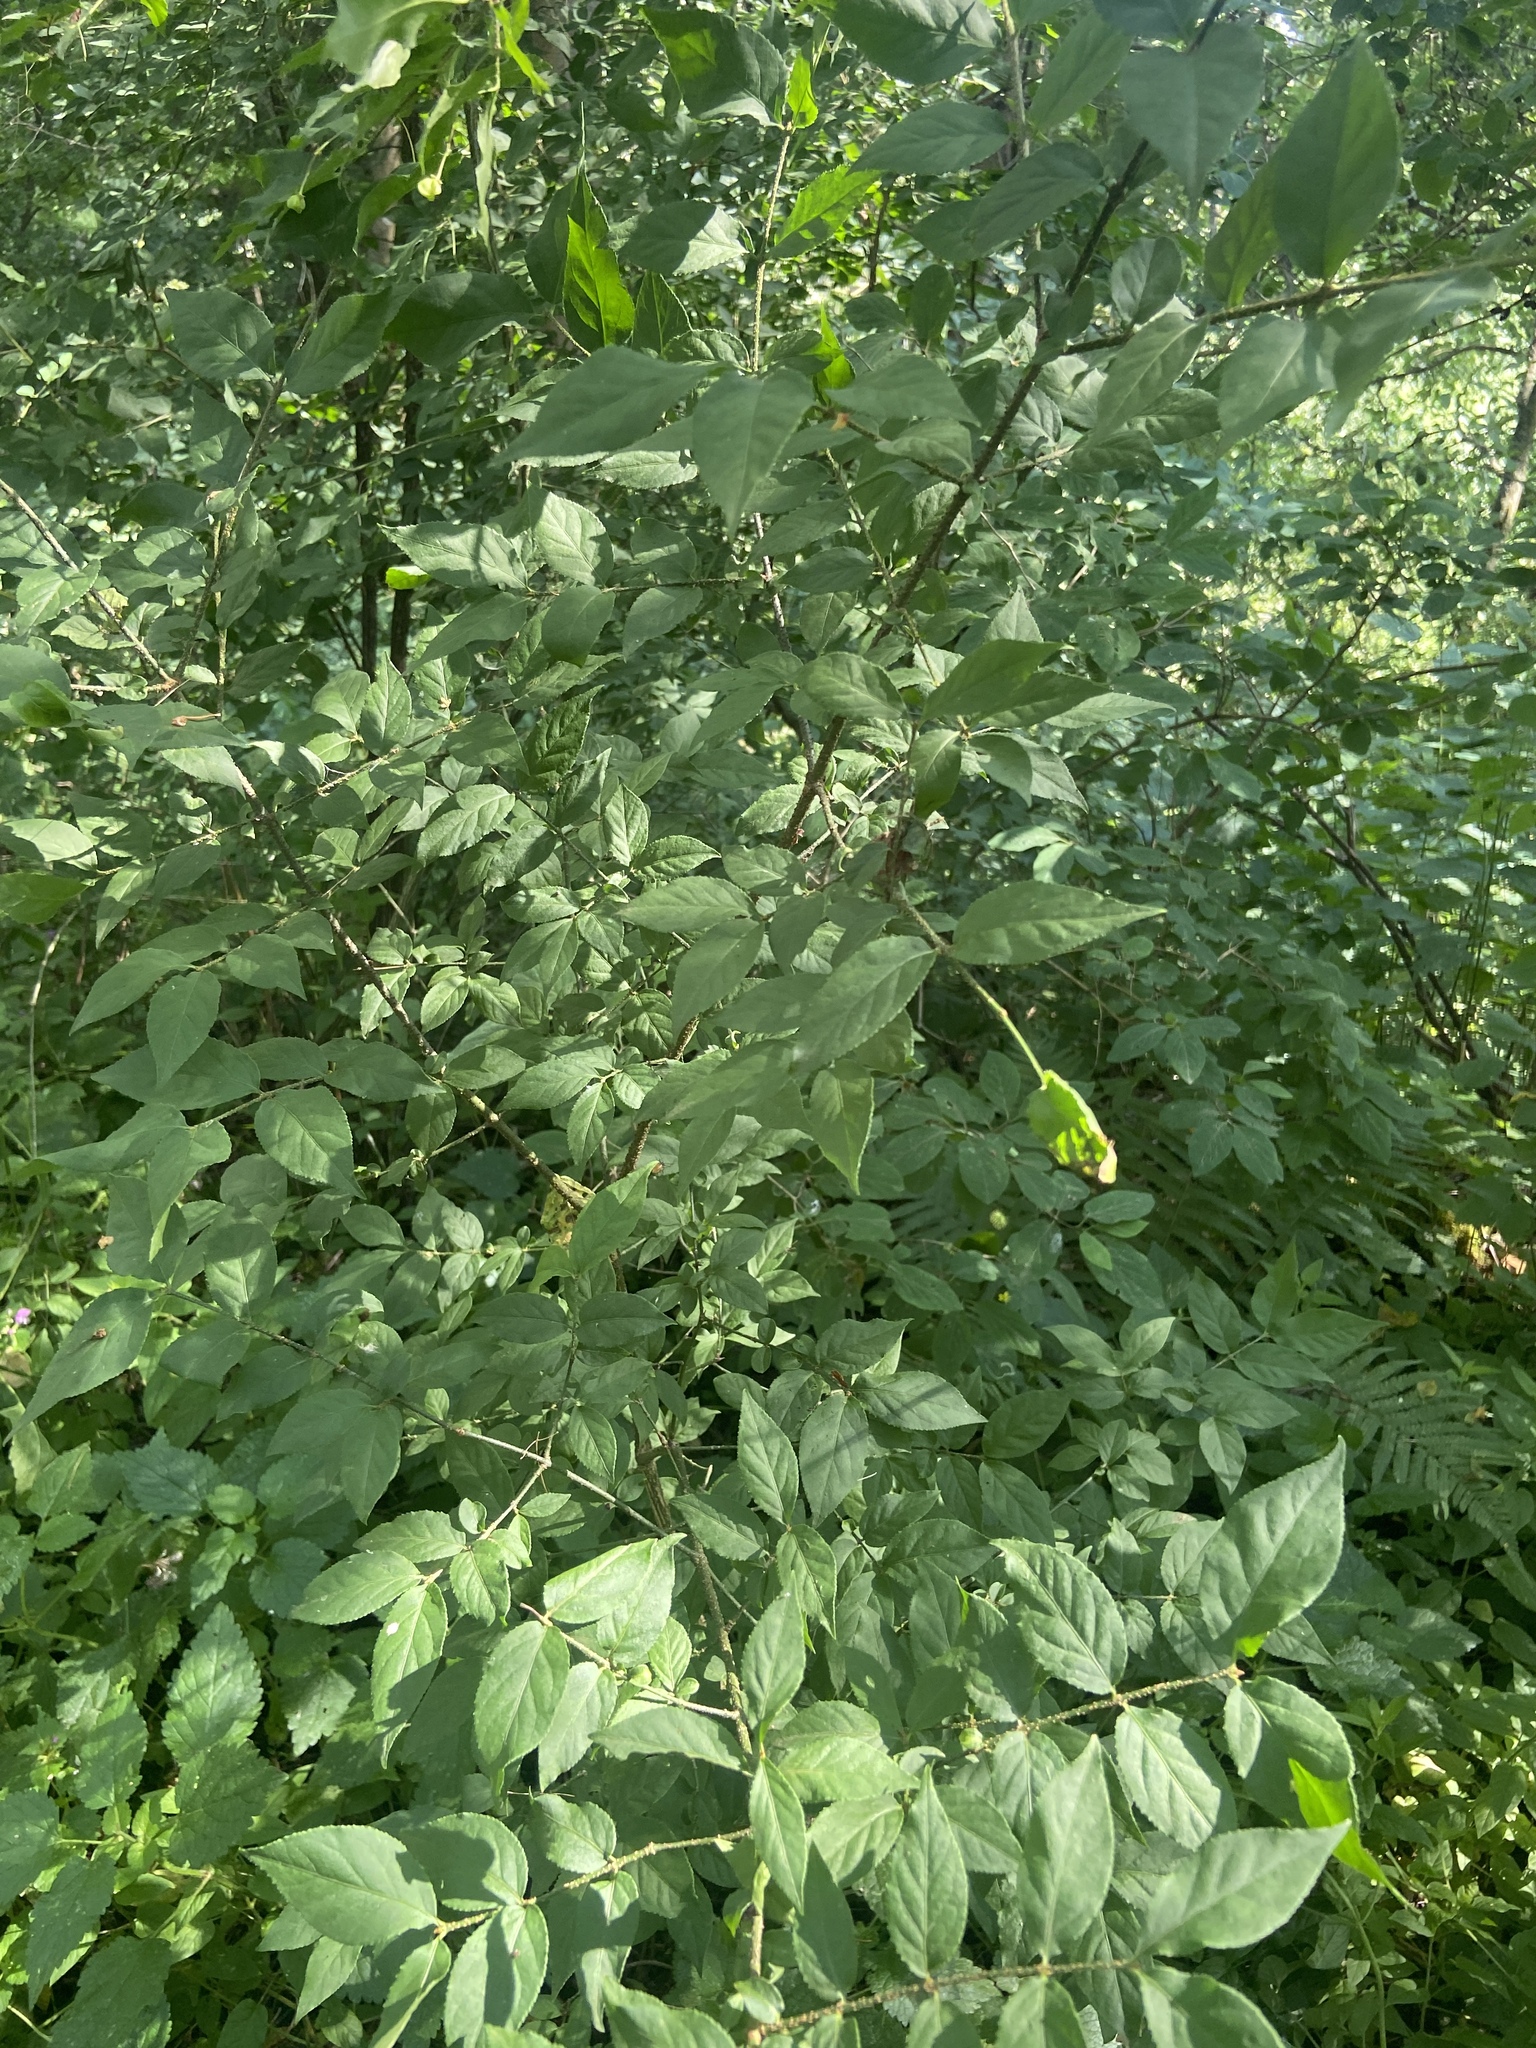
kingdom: Plantae
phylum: Tracheophyta
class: Magnoliopsida
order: Celastrales
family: Celastraceae
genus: Euonymus
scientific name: Euonymus verrucosus
